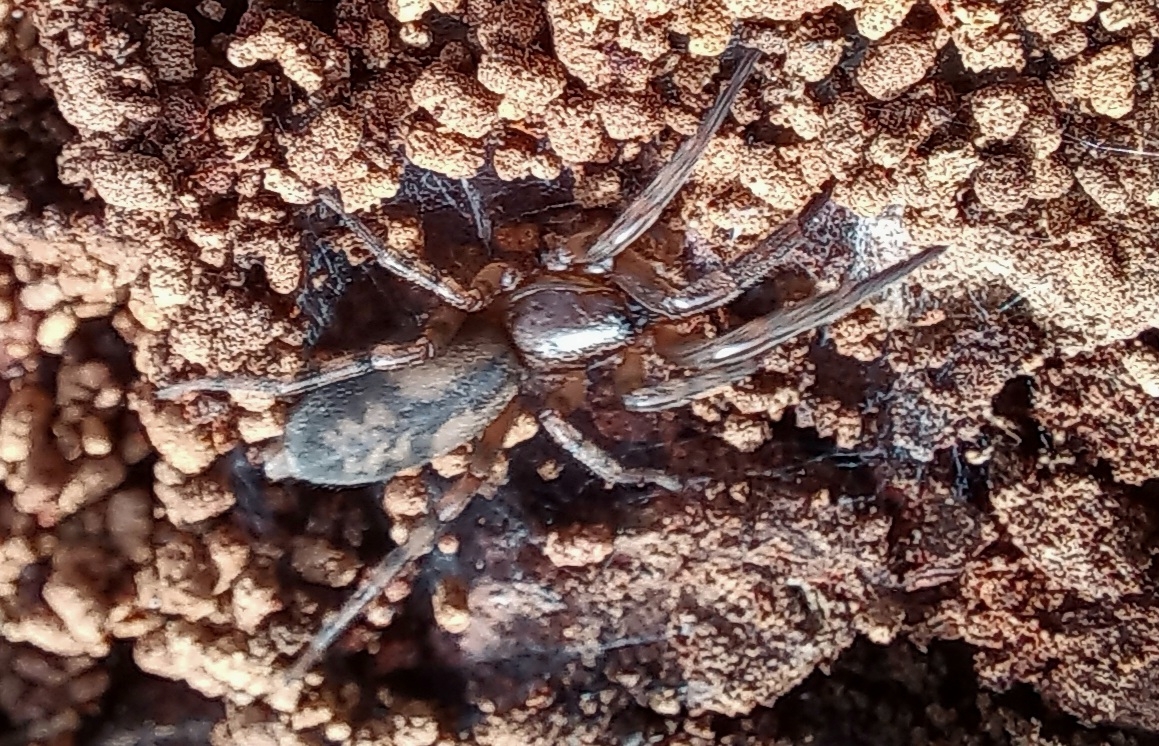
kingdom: Animalia
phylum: Arthropoda
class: Arachnida
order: Araneae
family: Gnaphosidae
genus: Intruda
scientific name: Intruda signata
